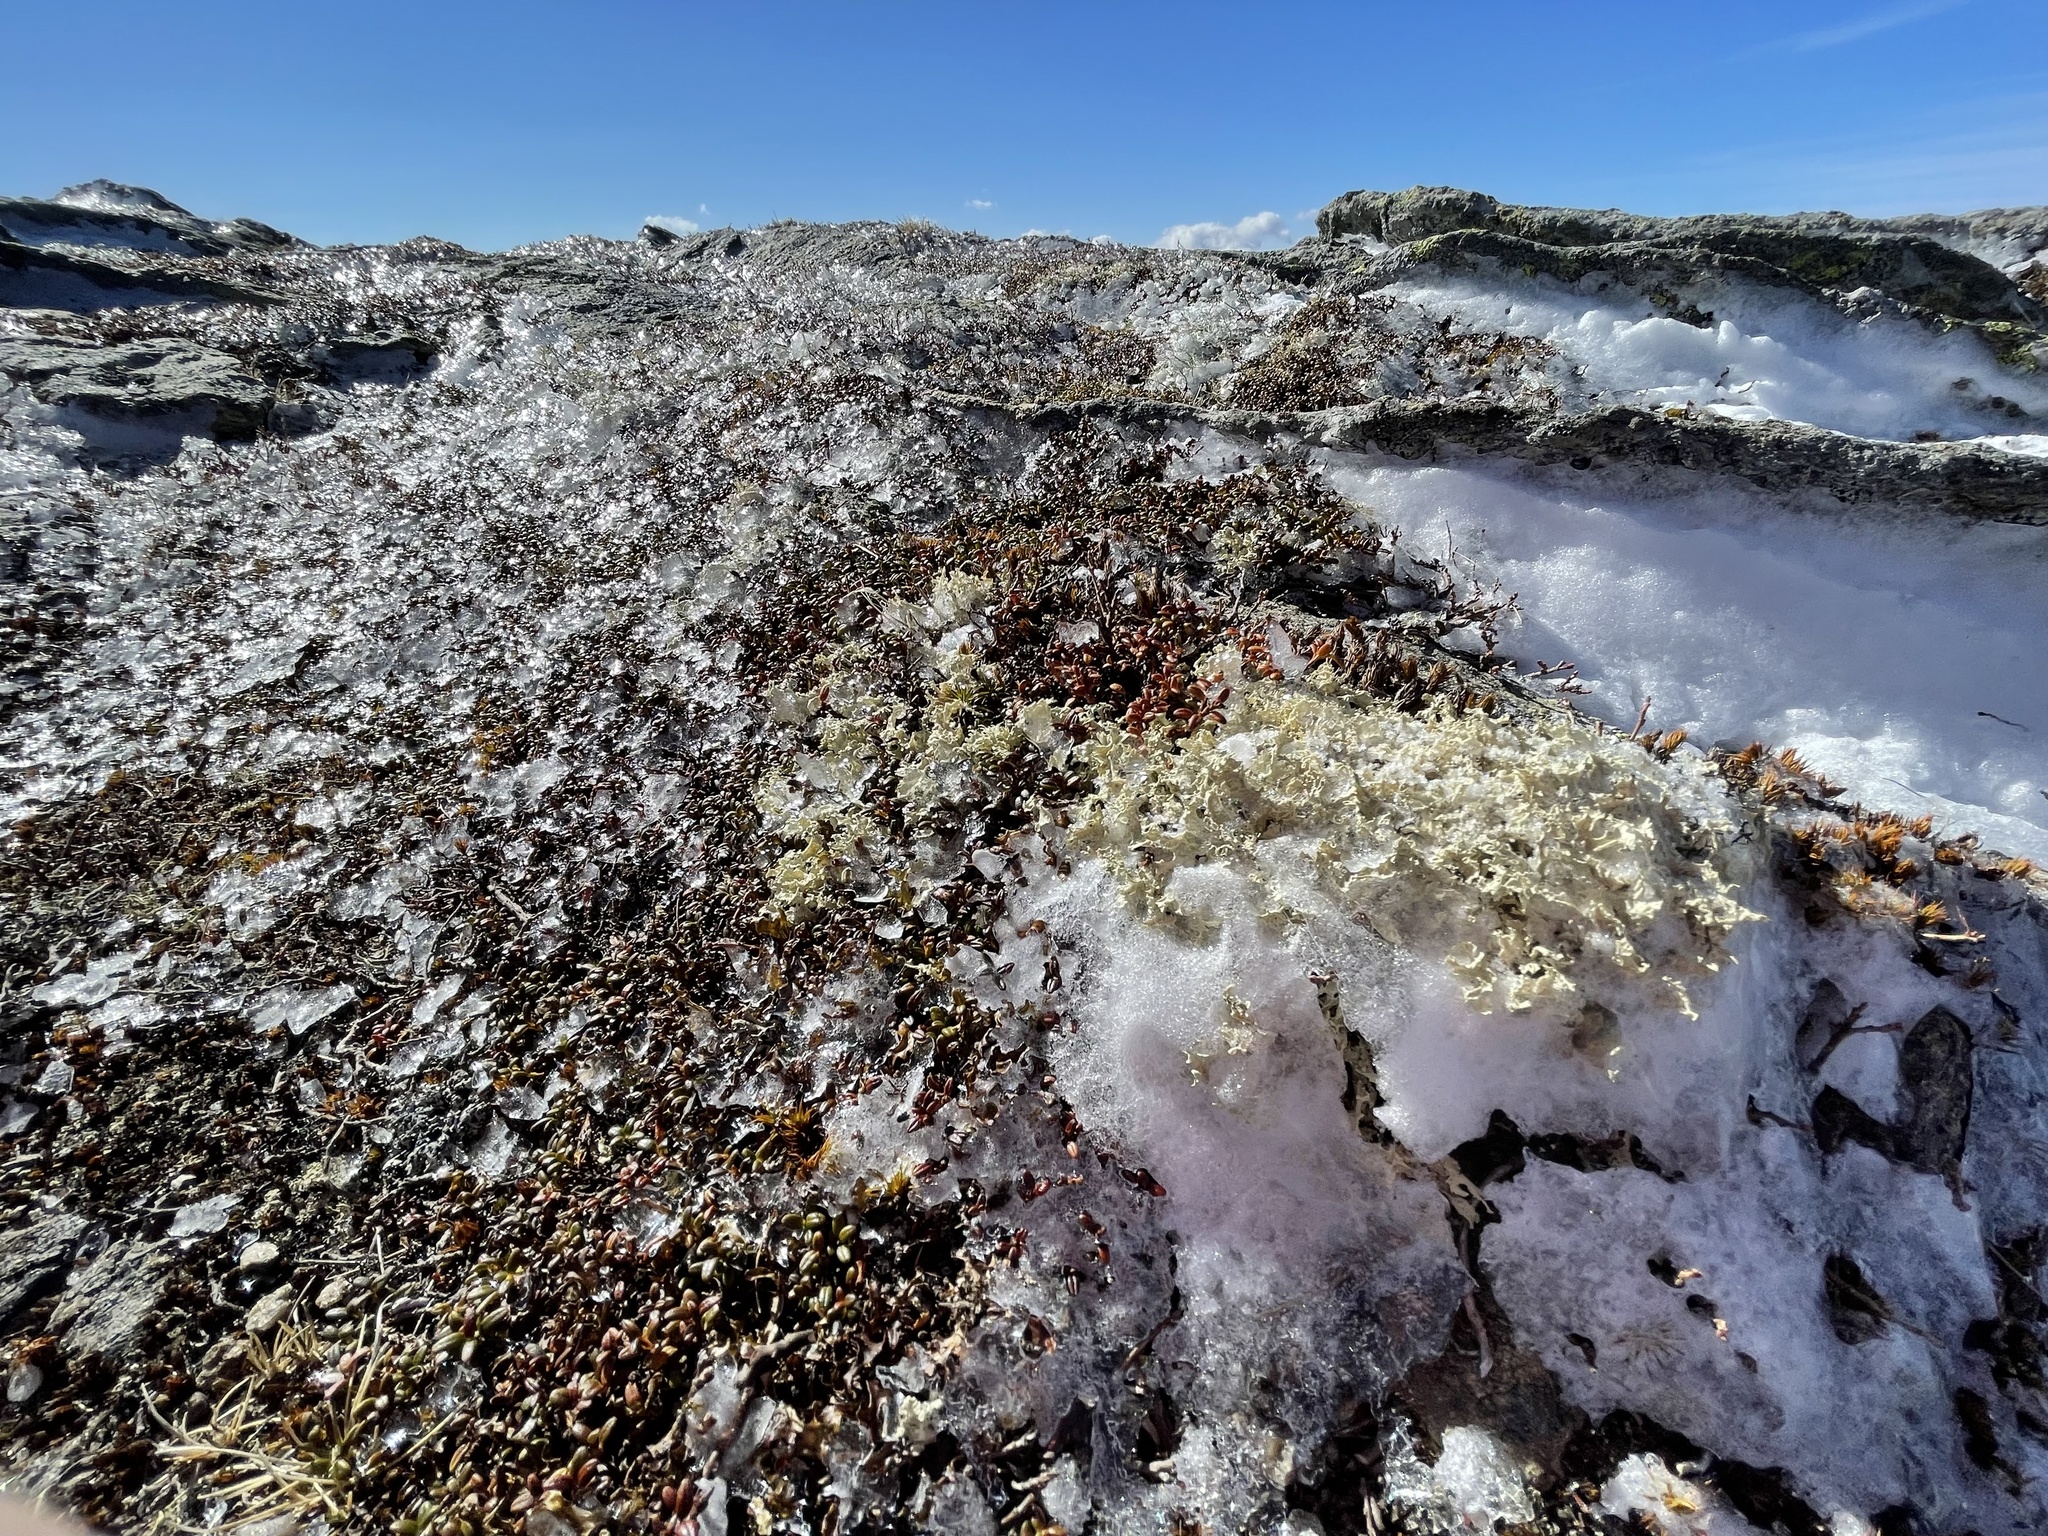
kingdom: Fungi
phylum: Ascomycota
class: Lecanoromycetes
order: Lecanorales
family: Parmeliaceae
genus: Nephromopsis
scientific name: Nephromopsis nivalis
